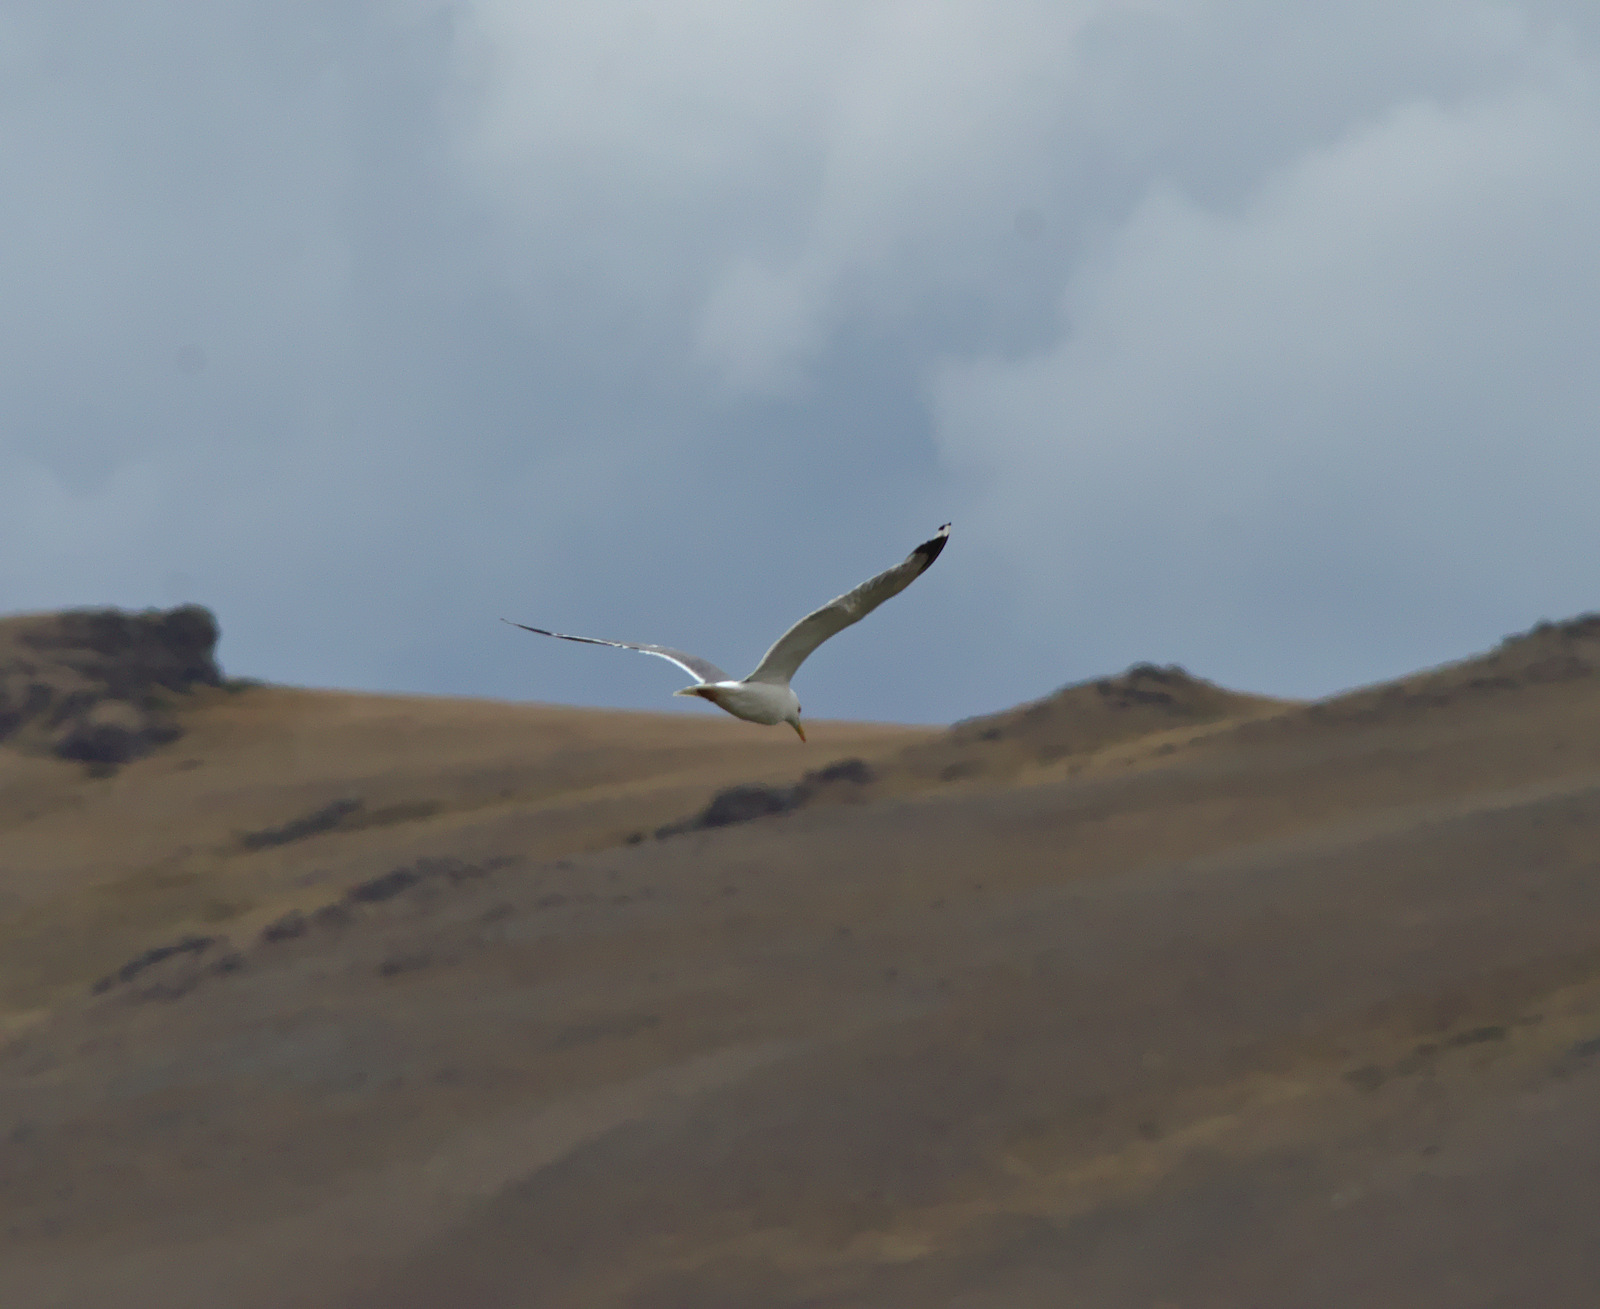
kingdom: Animalia
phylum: Chordata
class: Aves
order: Charadriiformes
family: Laridae
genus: Larus
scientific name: Larus argentatus
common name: Herring gull
